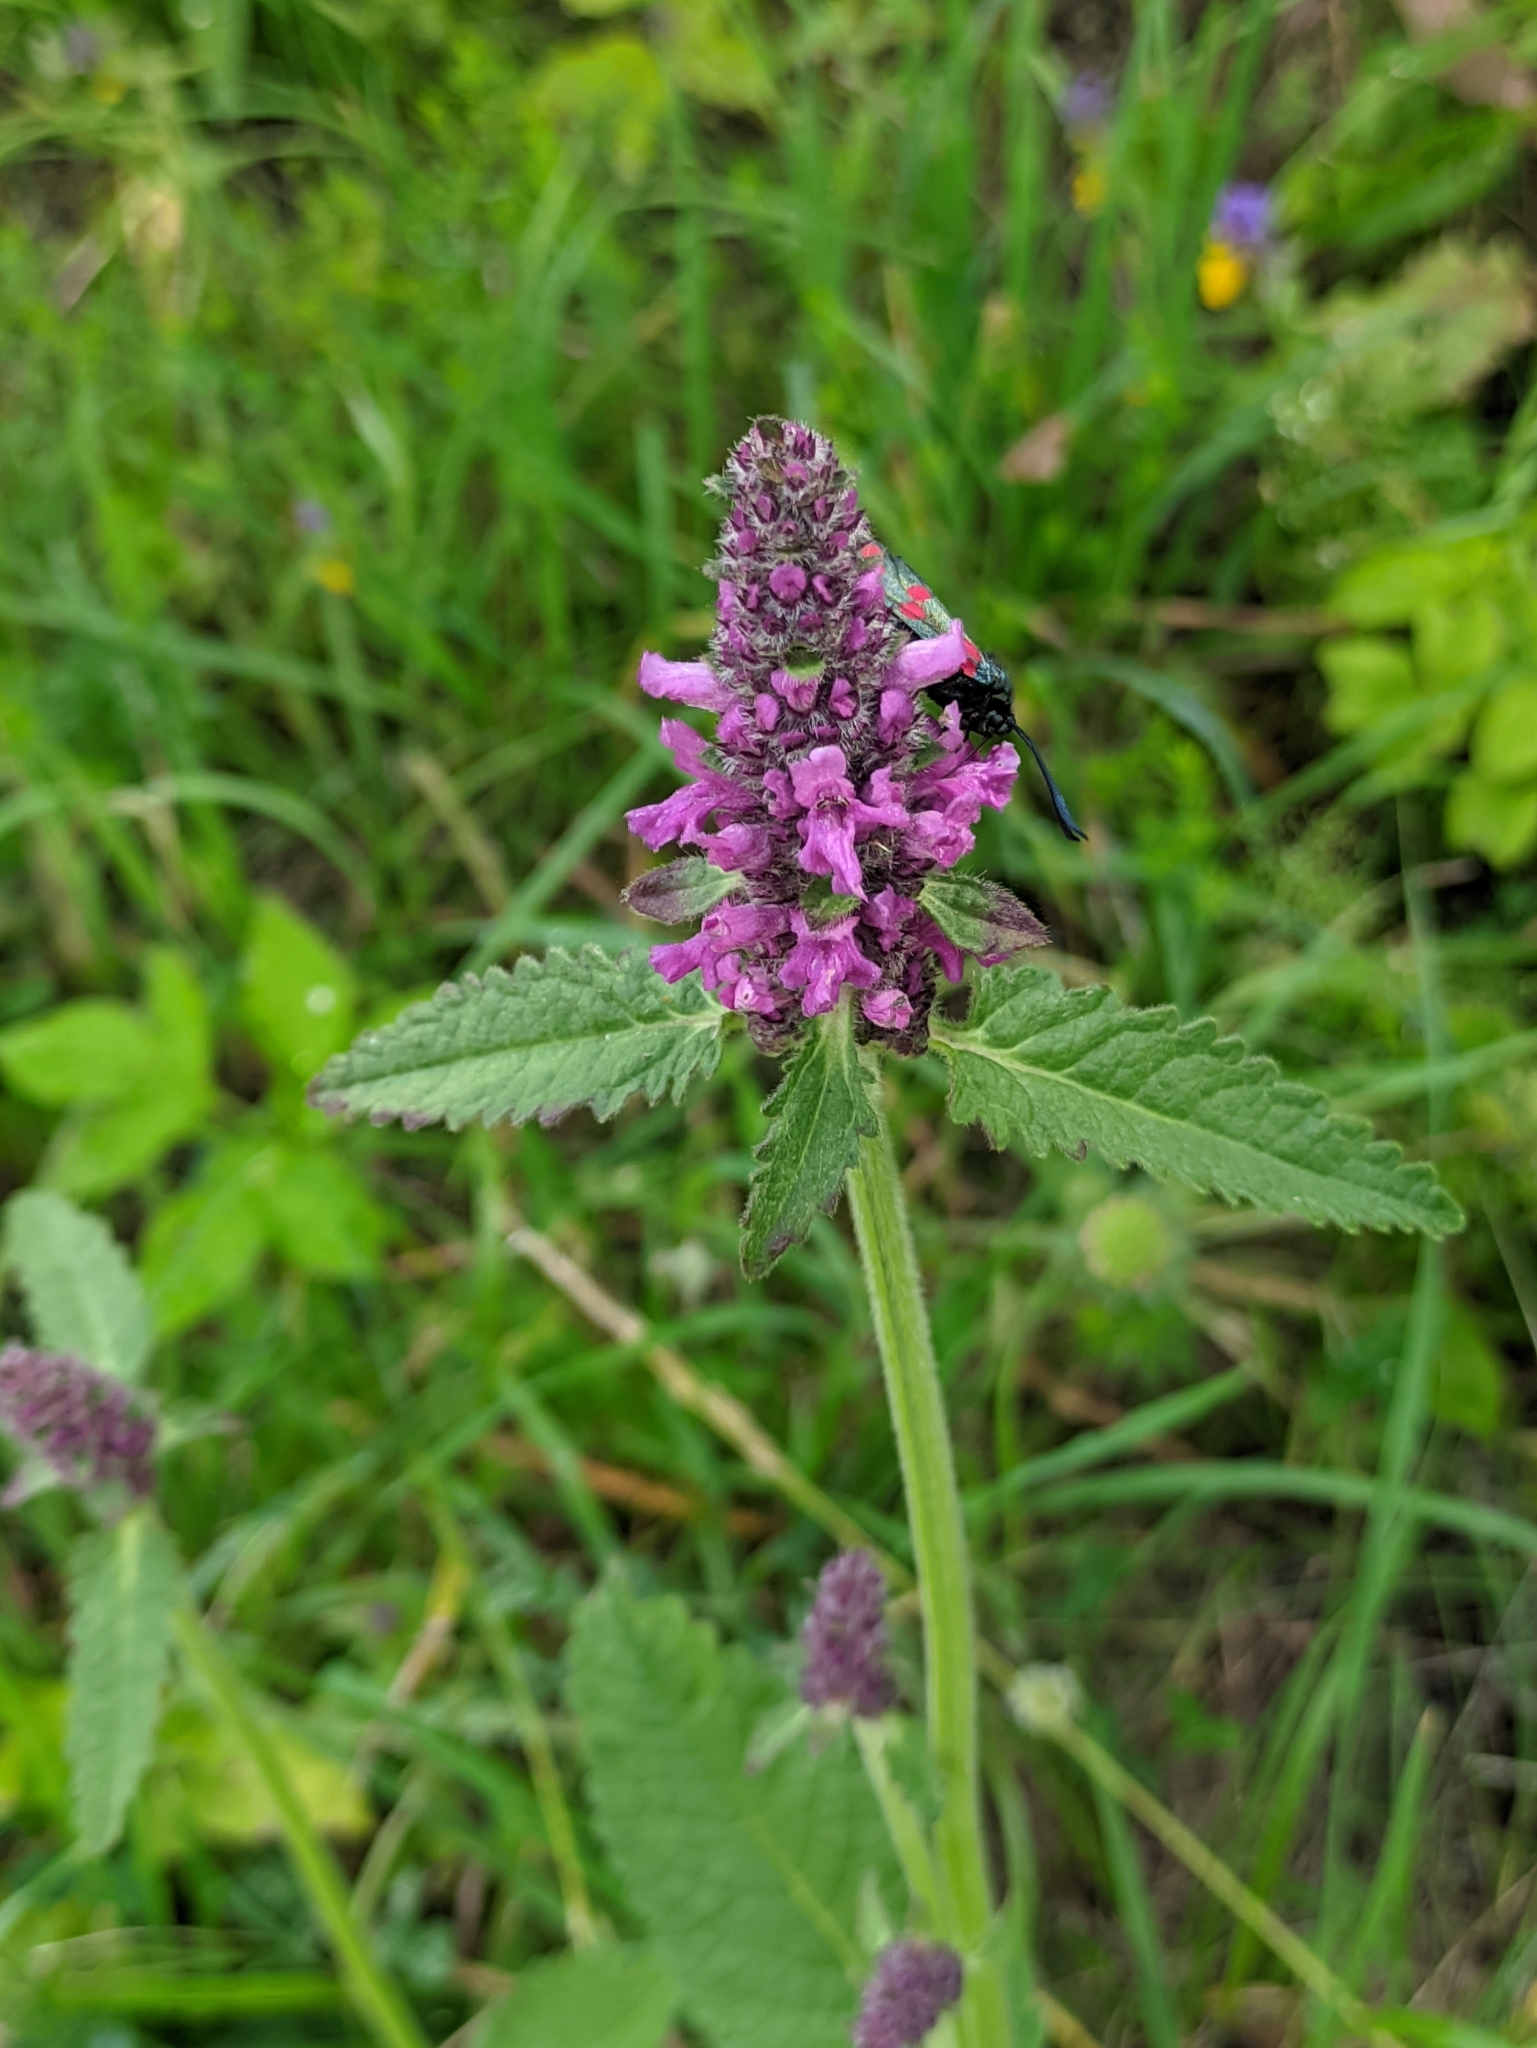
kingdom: Plantae
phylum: Tracheophyta
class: Magnoliopsida
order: Lamiales
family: Lamiaceae
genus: Betonica
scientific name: Betonica officinalis
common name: Bishop's-wort
